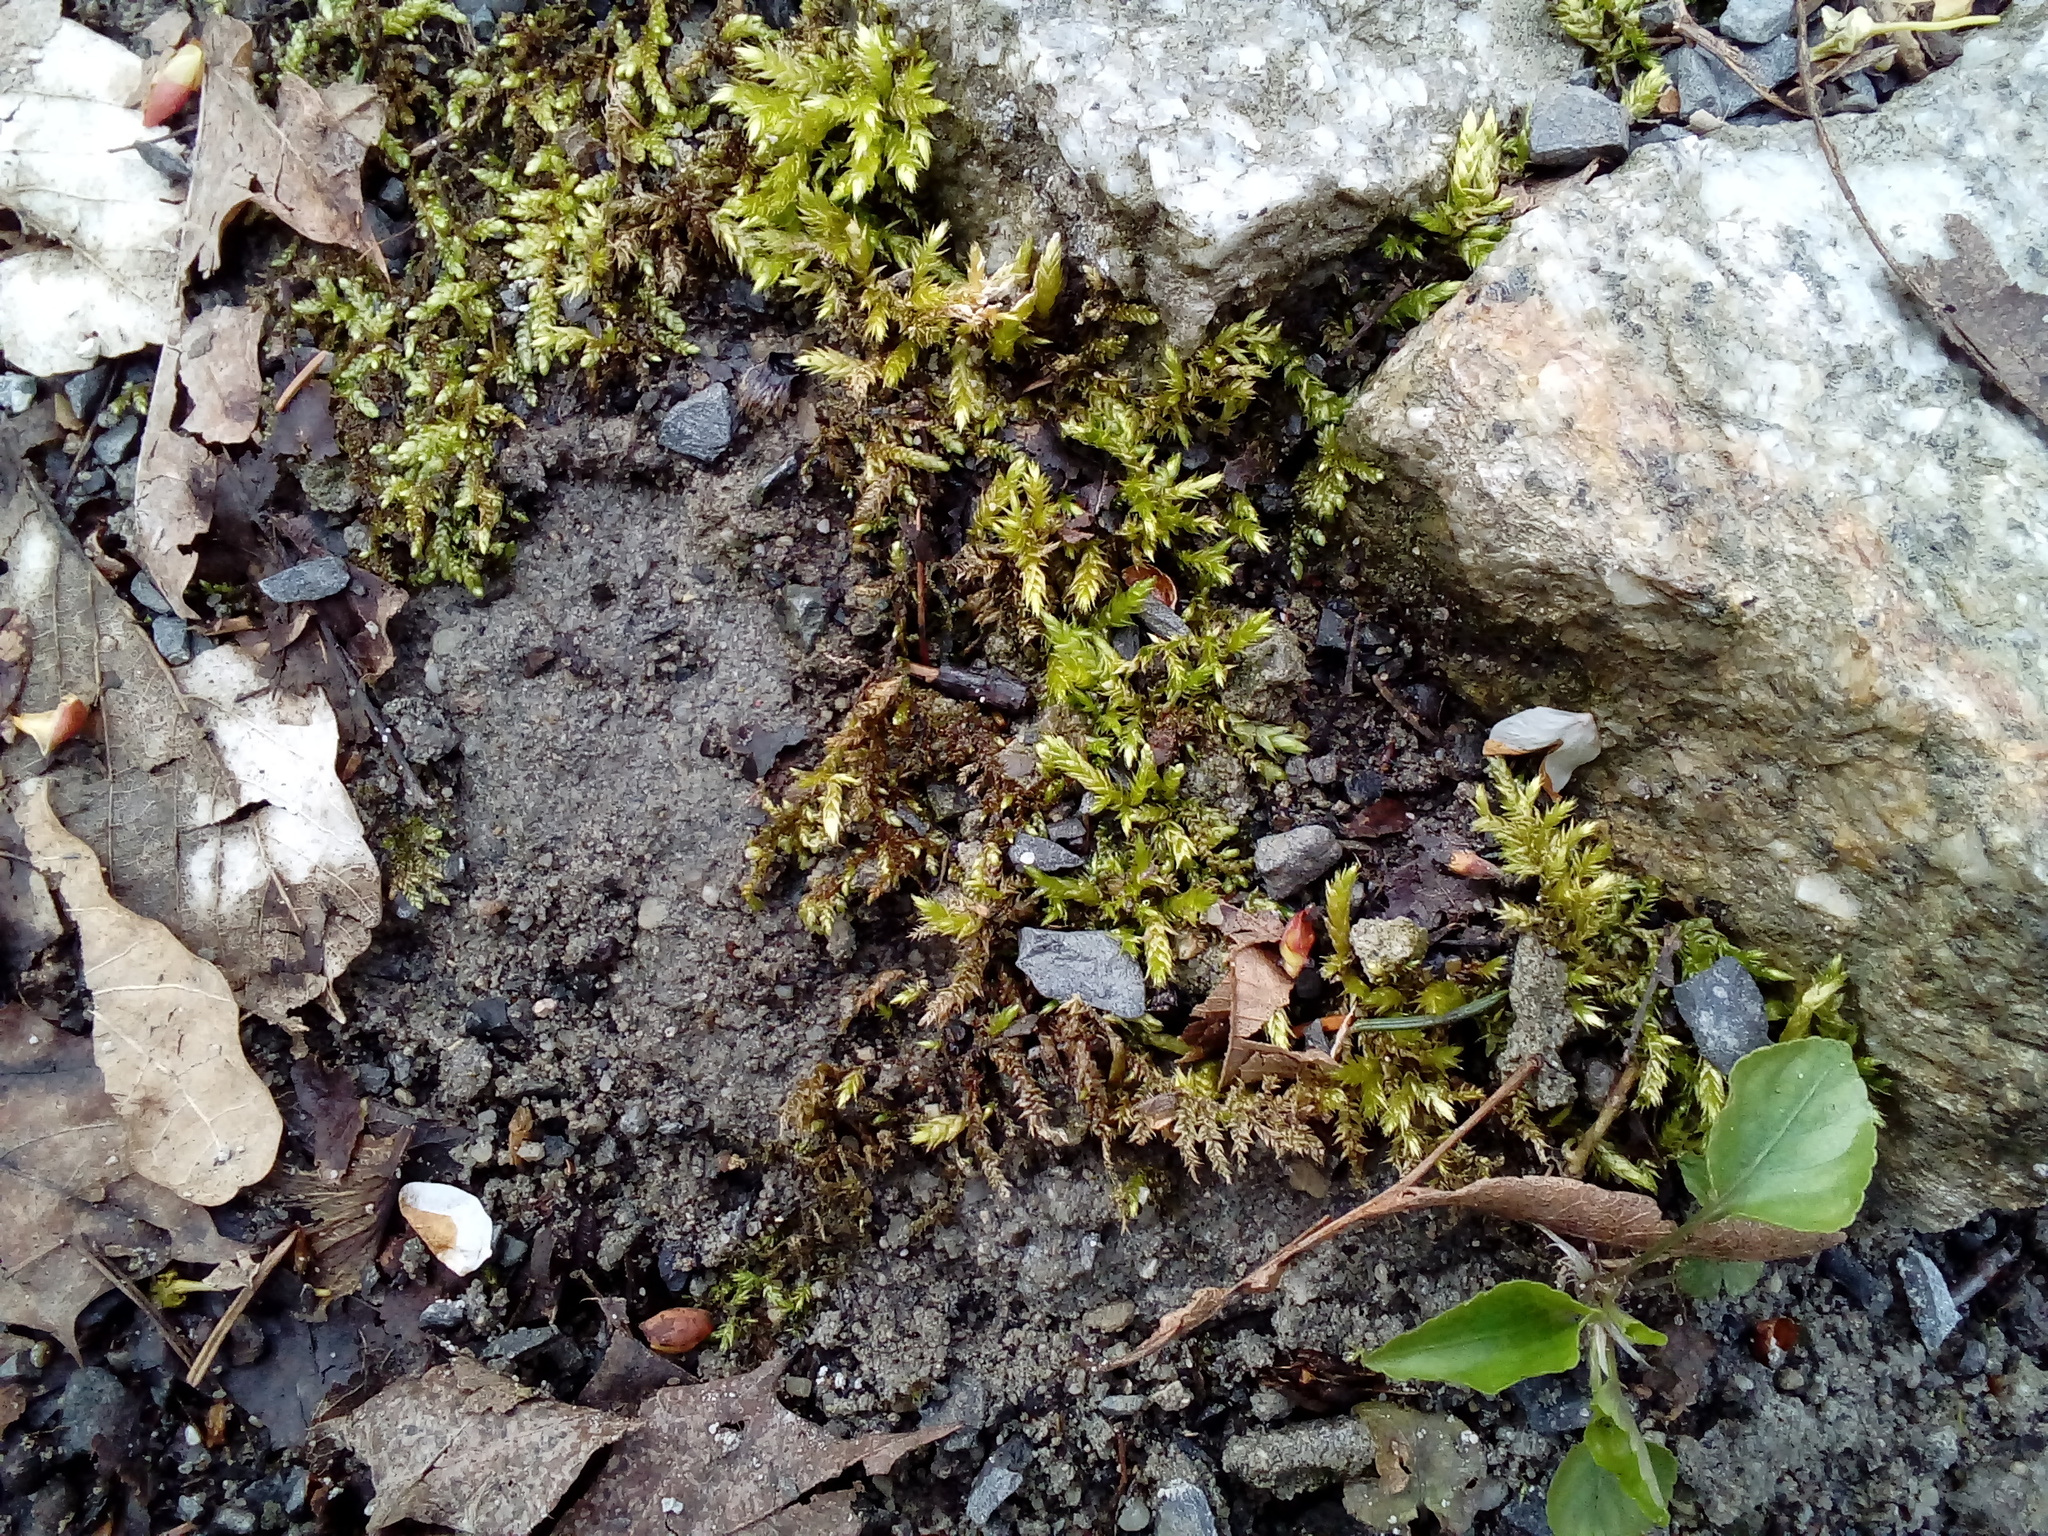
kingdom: Plantae
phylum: Bryophyta
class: Bryopsida
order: Hypnales
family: Brachytheciaceae
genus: Brachythecium
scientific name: Brachythecium rutabulum
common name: Rough-stalked feather-moss
